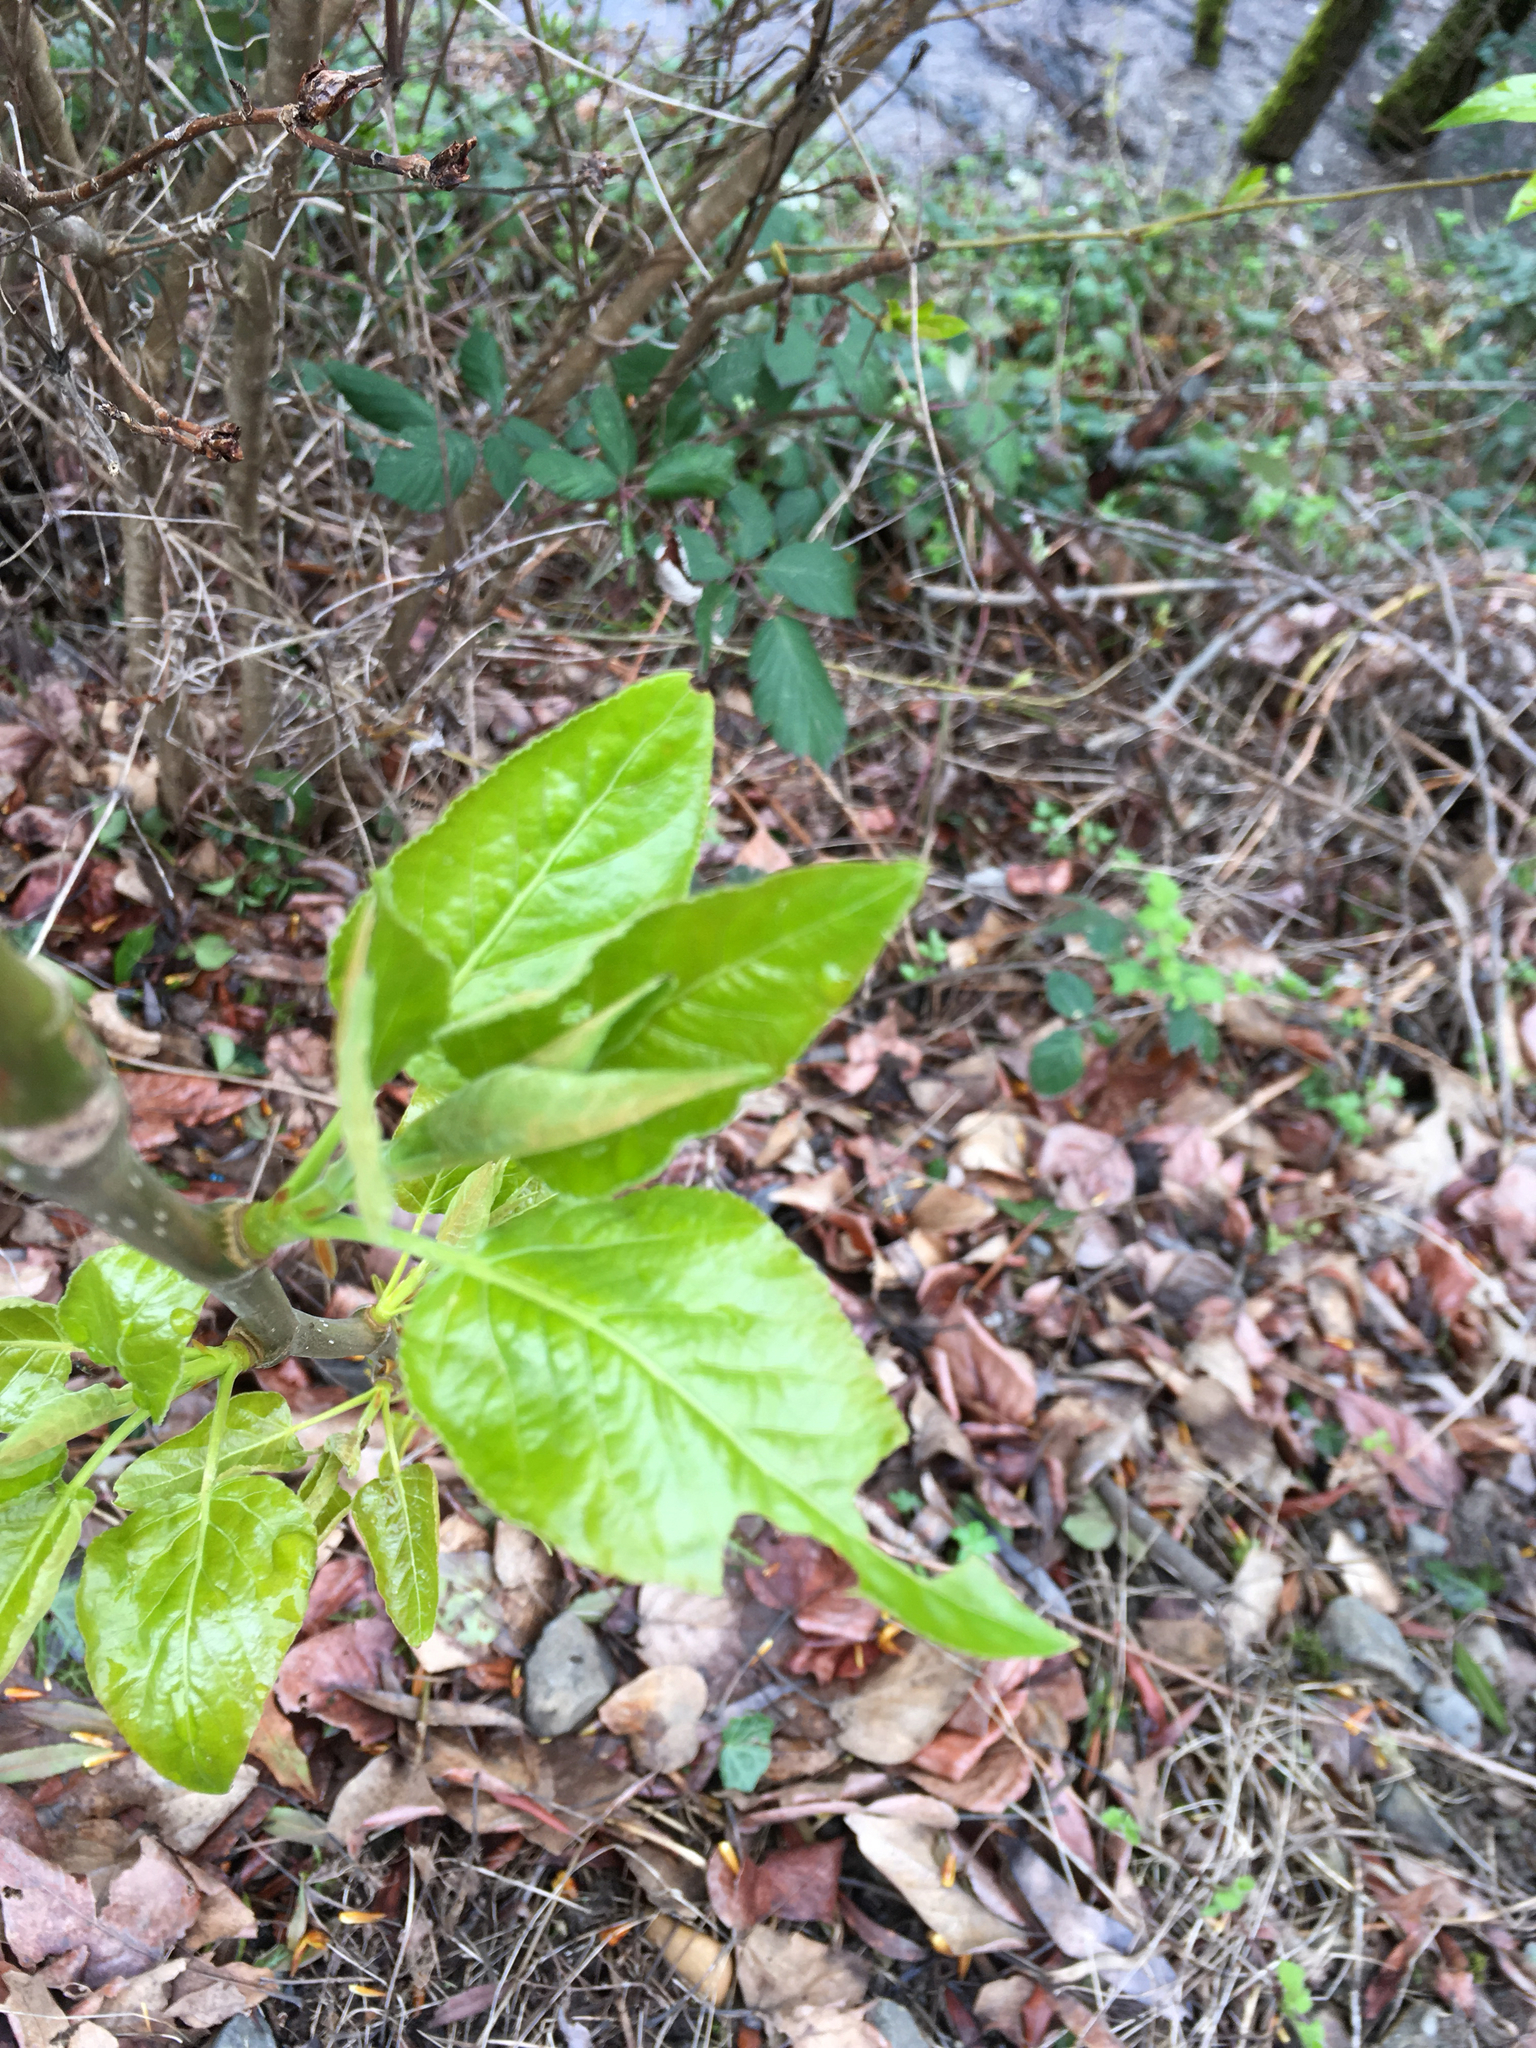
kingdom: Plantae
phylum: Tracheophyta
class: Magnoliopsida
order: Malpighiales
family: Salicaceae
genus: Populus
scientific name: Populus trichocarpa
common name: Black cottonwood
